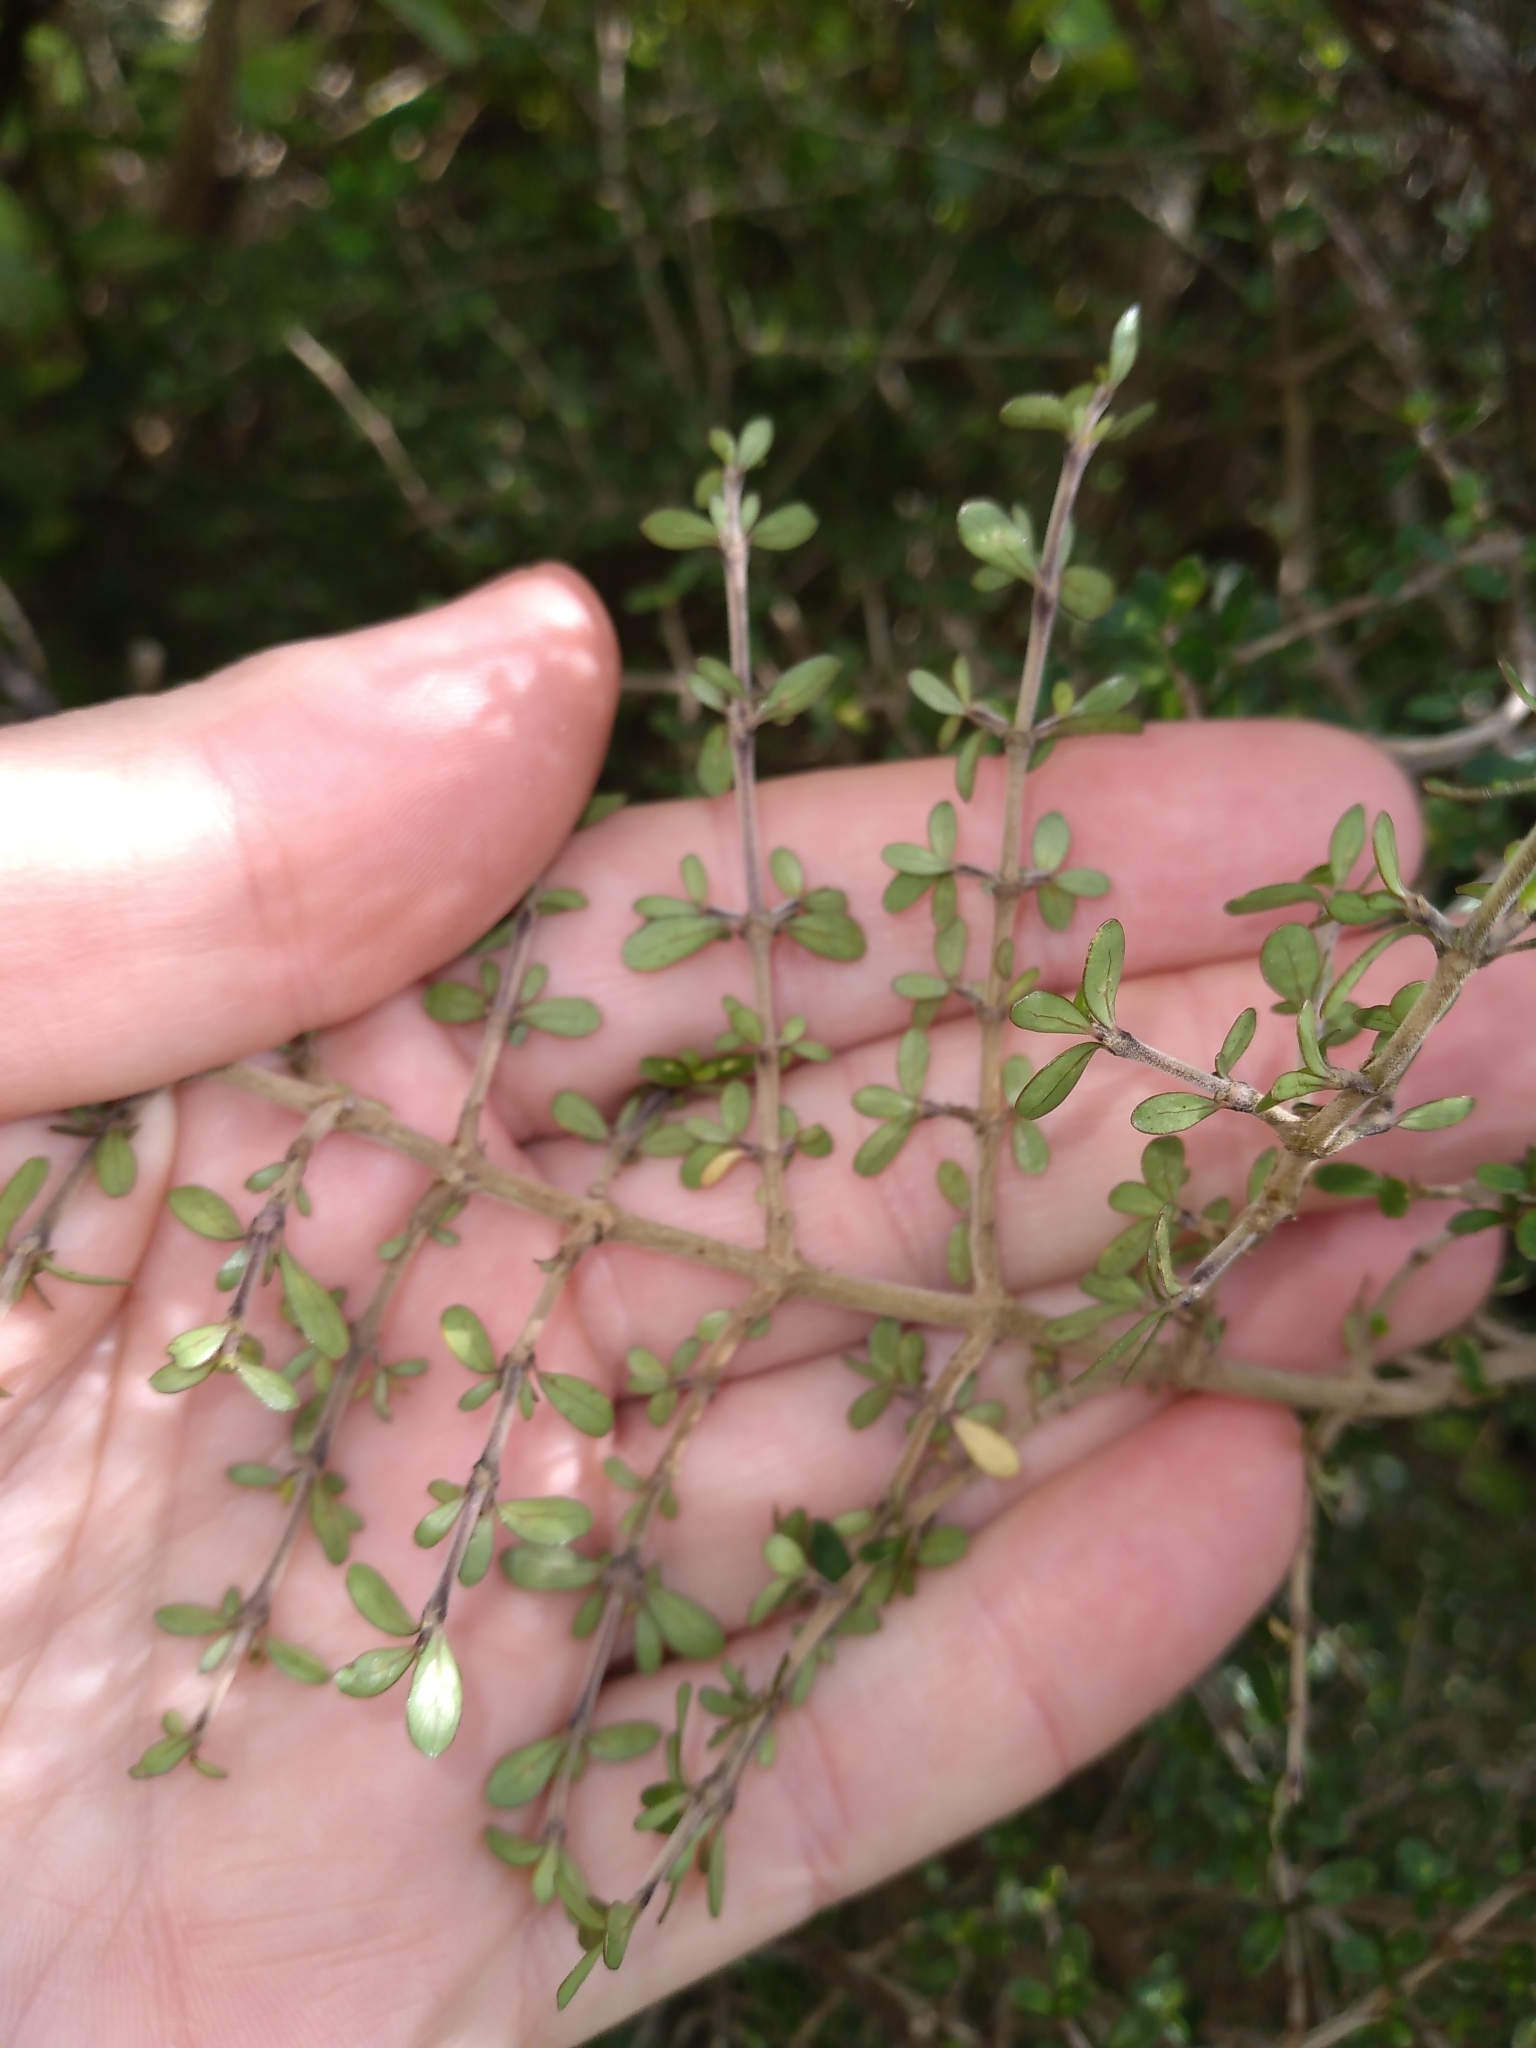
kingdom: Plantae
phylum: Tracheophyta
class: Magnoliopsida
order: Gentianales
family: Rubiaceae
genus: Coprosma
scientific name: Coprosma dumosa
